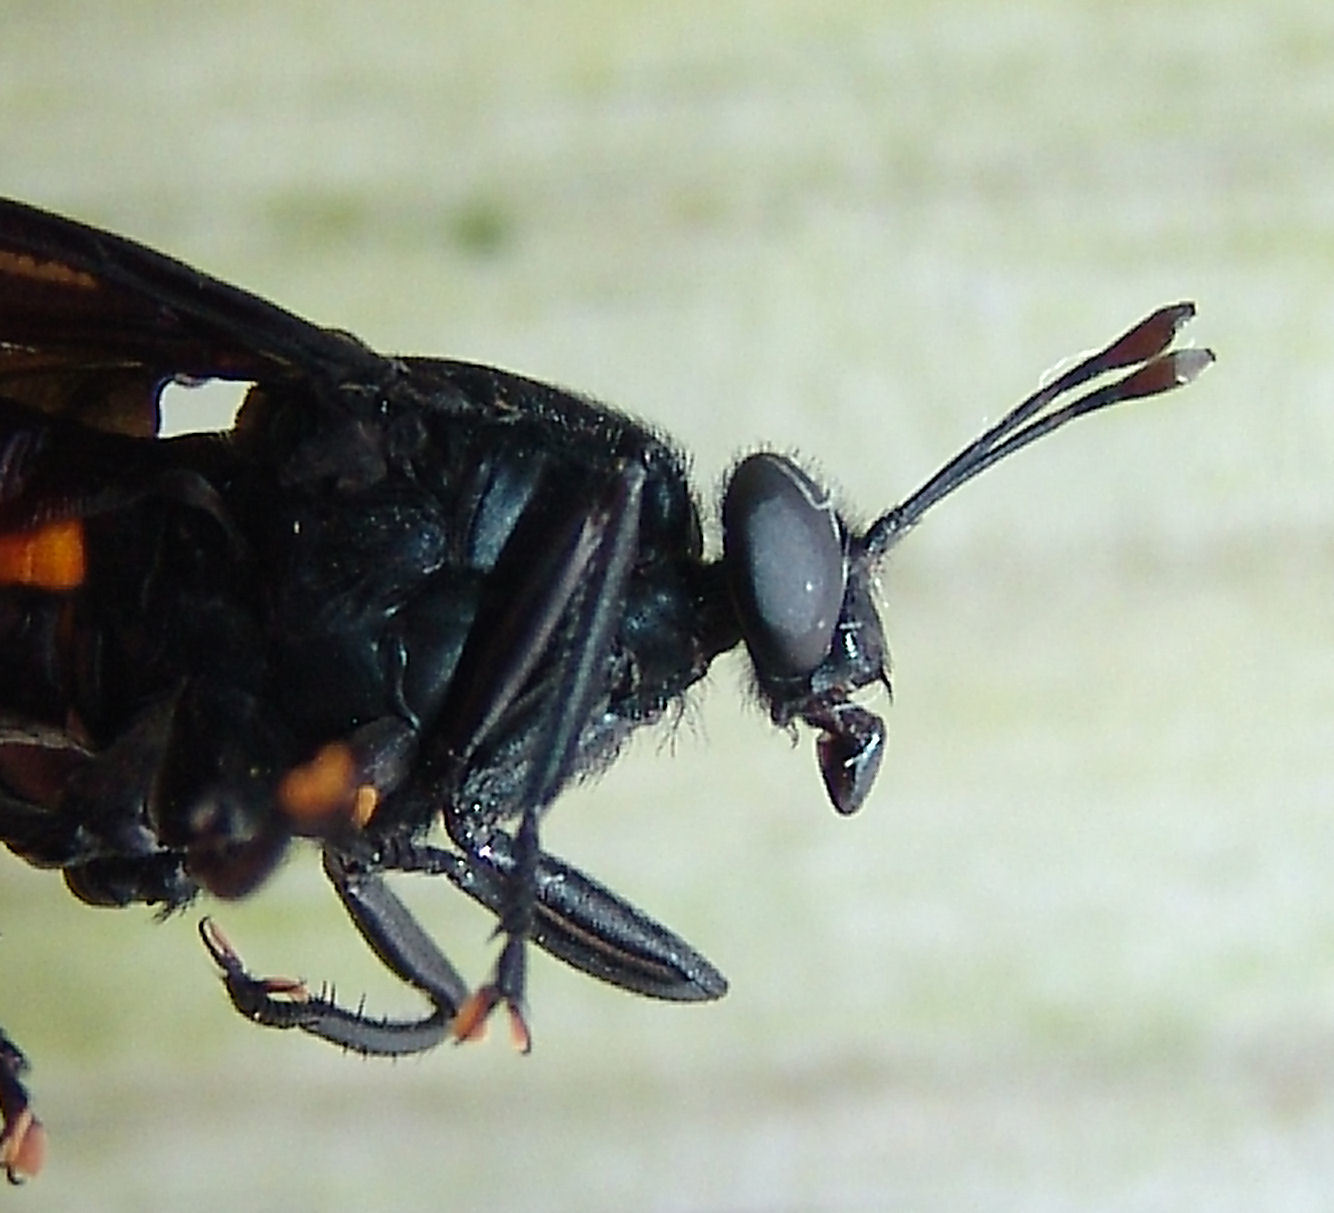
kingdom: Animalia
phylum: Arthropoda
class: Insecta
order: Diptera
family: Mydidae
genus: Mydas
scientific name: Mydas clavatus
